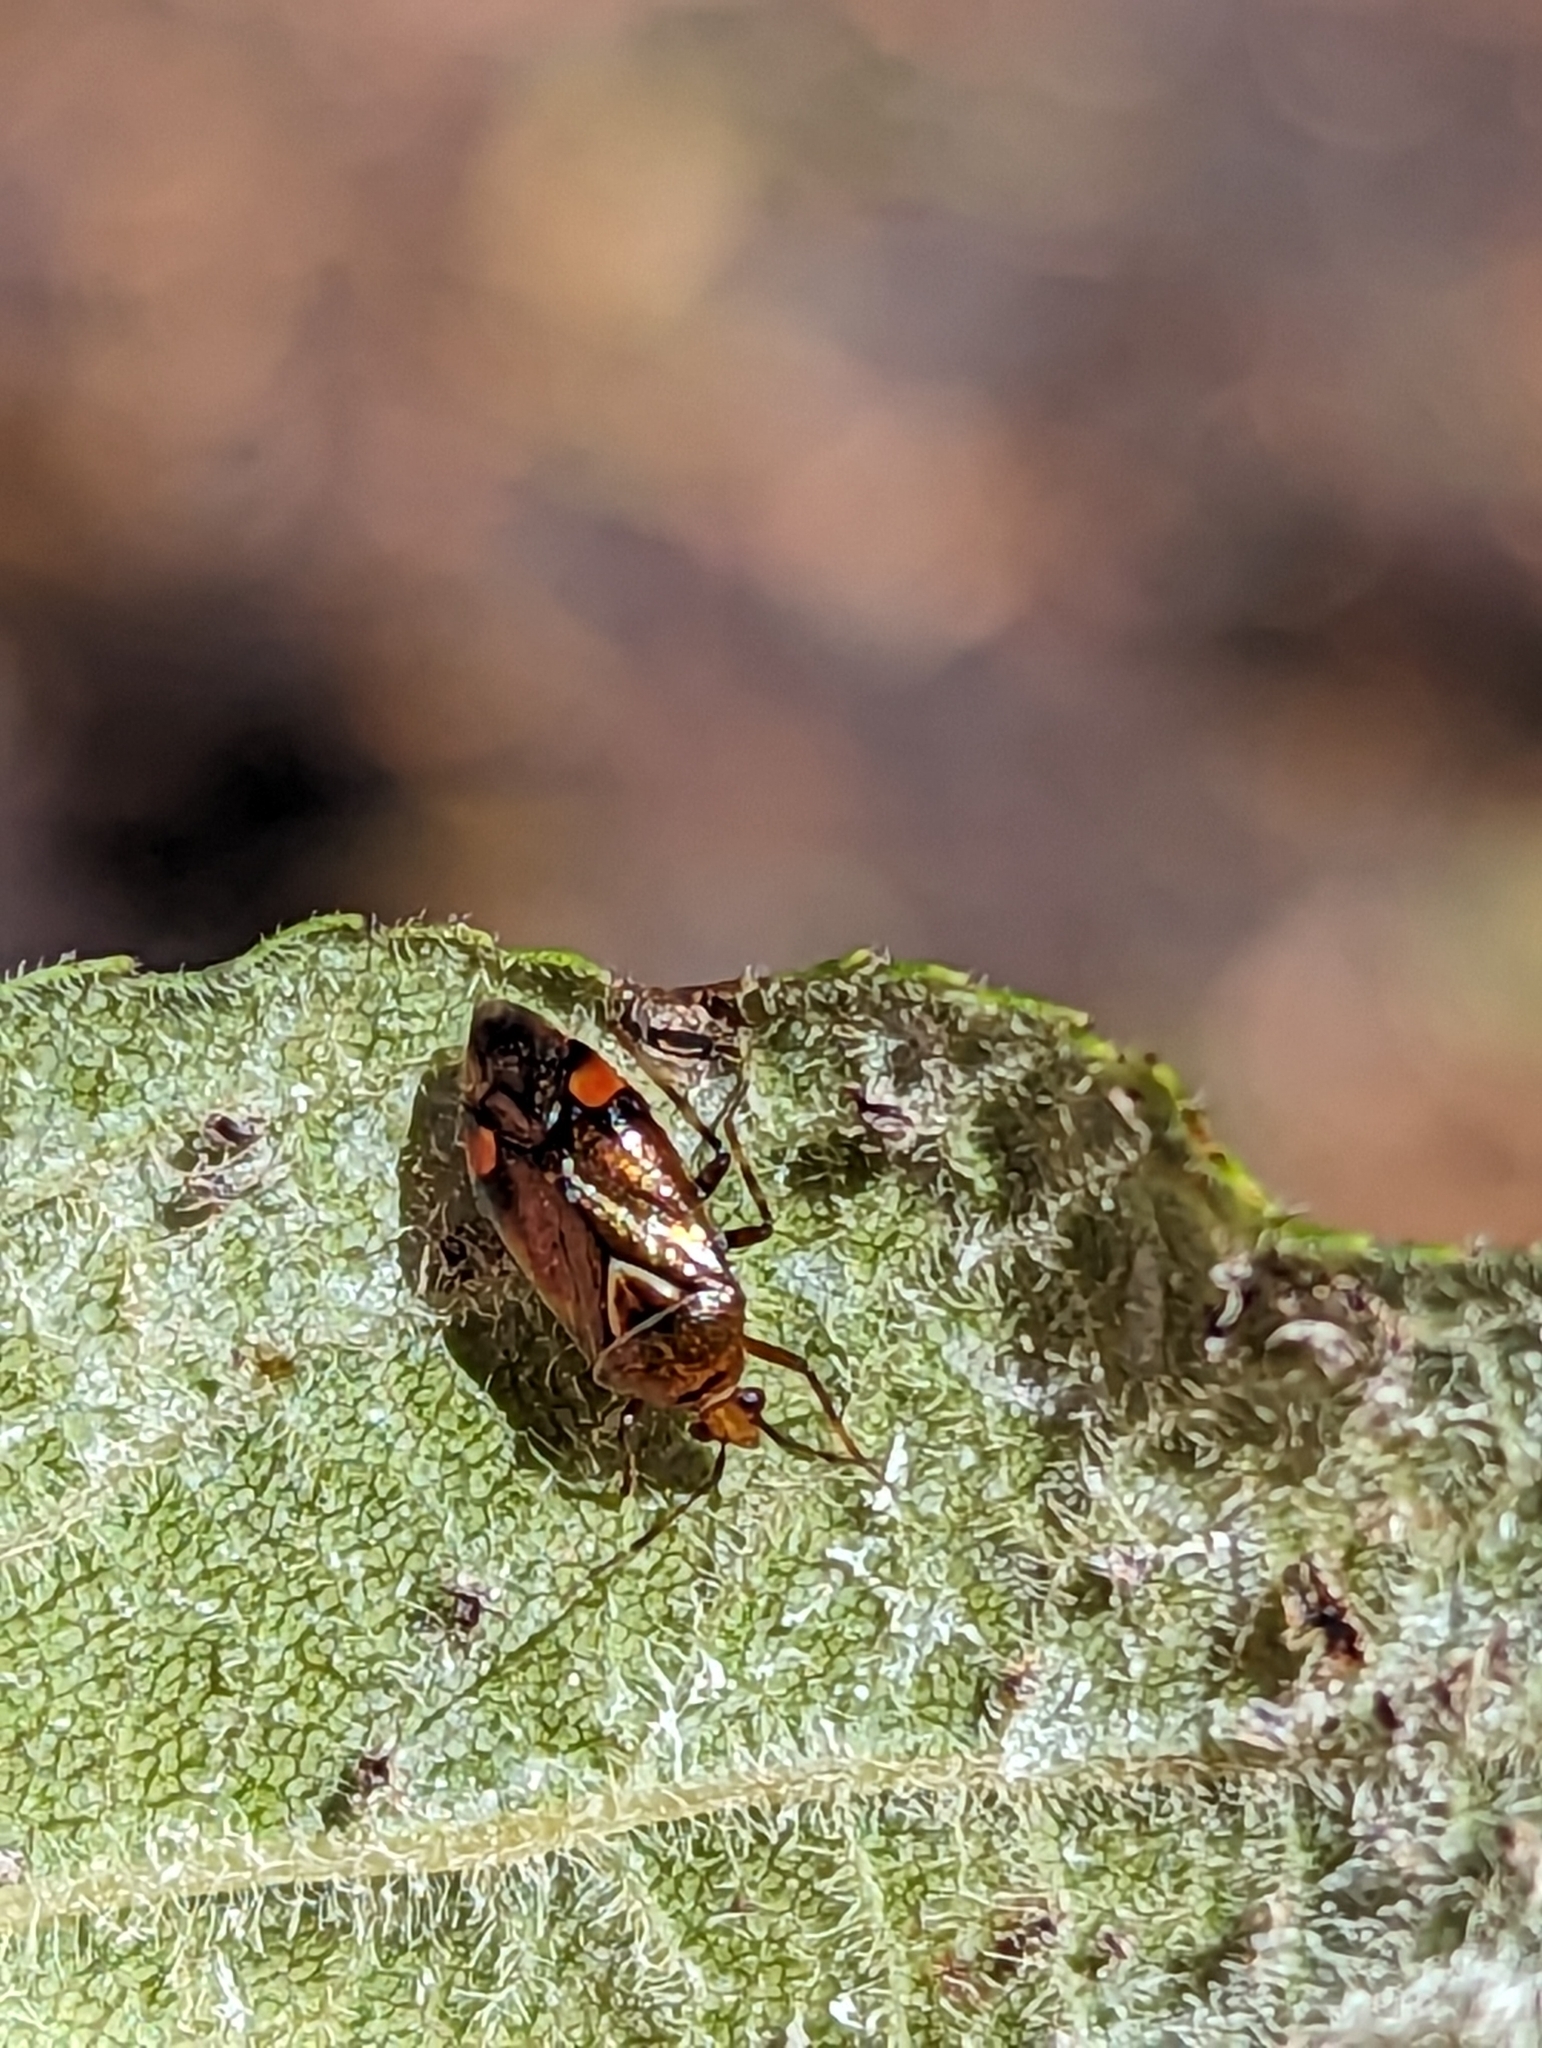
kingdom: Animalia
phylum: Arthropoda
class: Insecta
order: Hemiptera
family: Miridae
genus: Deraeocoris
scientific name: Deraeocoris flavilinea
